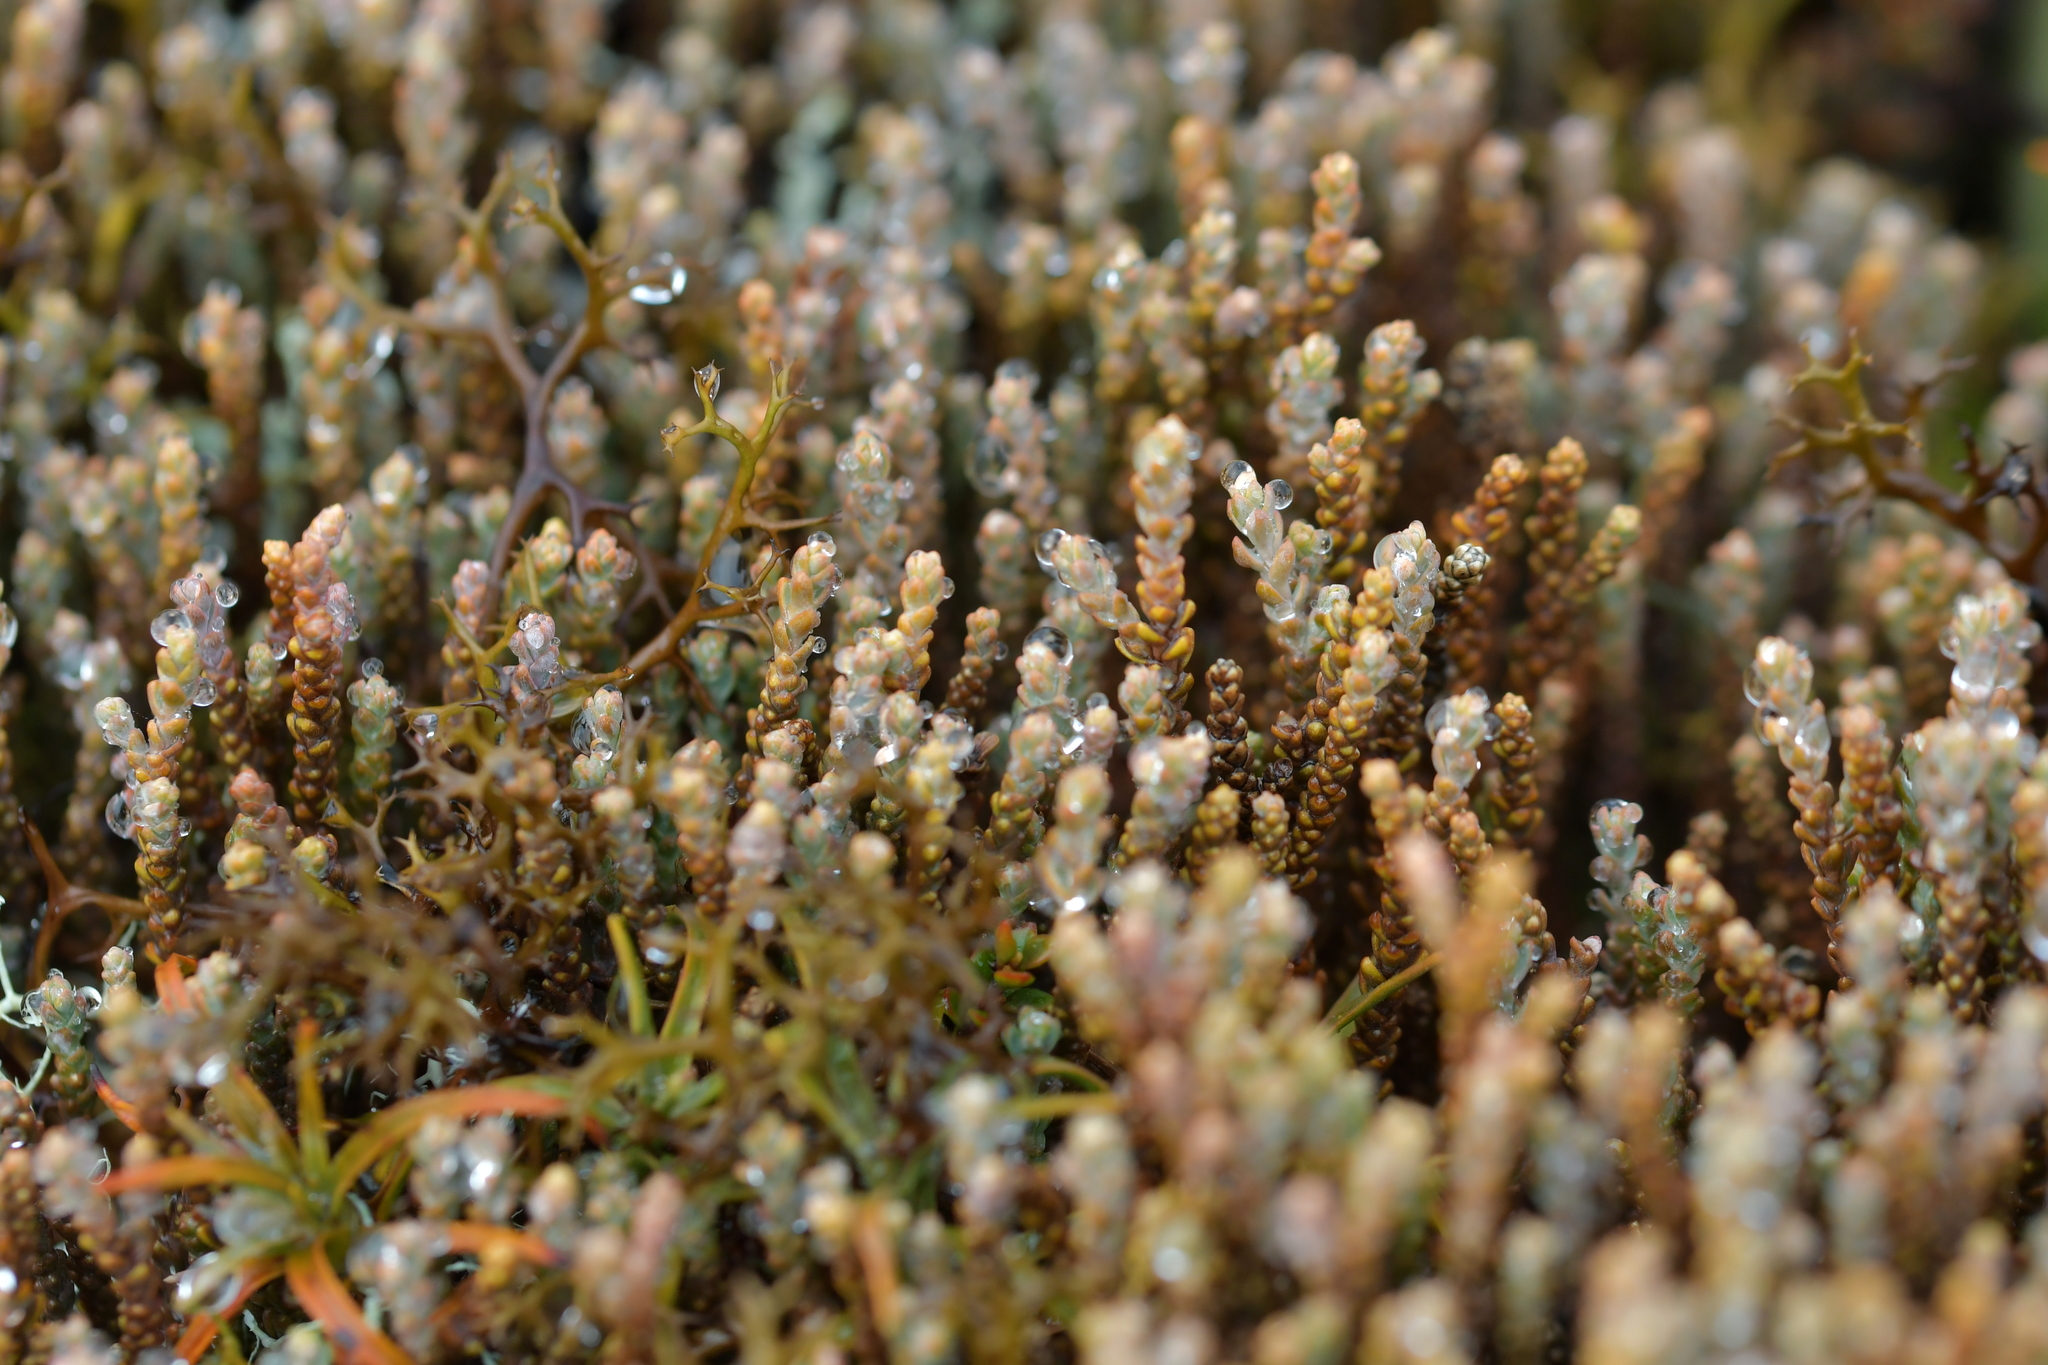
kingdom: Plantae
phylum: Tracheophyta
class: Pinopsida
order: Pinales
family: Podocarpaceae
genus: Lepidothamnus
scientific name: Lepidothamnus laxifolius
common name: Pygmy pine
